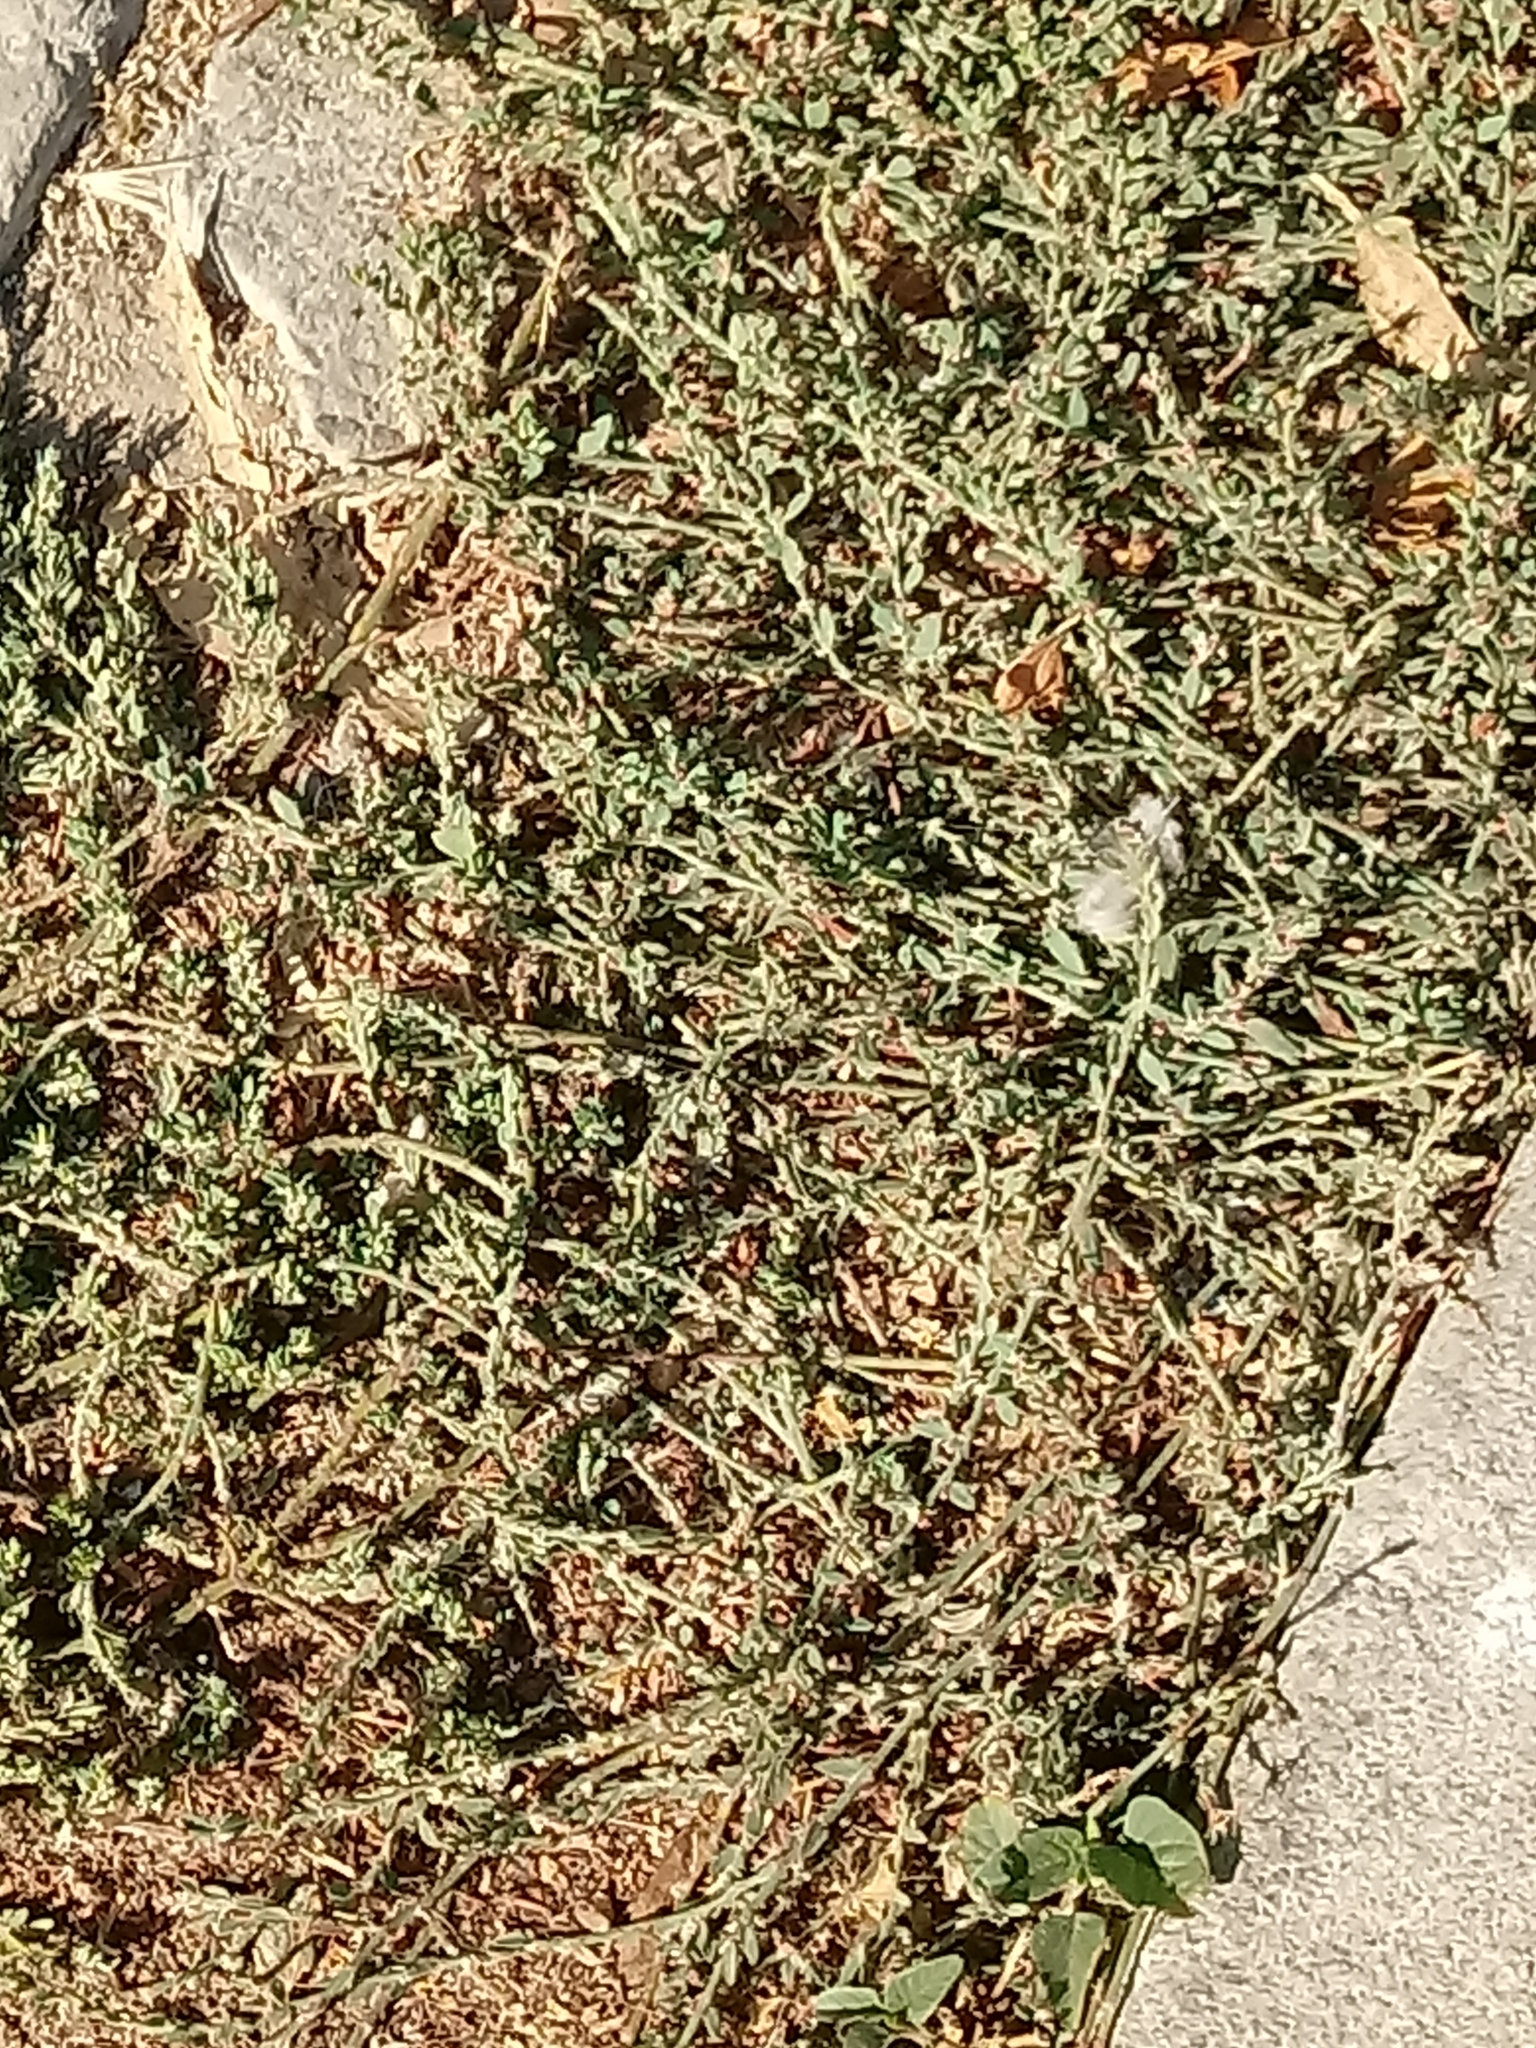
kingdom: Plantae
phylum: Tracheophyta
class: Magnoliopsida
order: Caryophyllales
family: Polygonaceae
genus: Polygonum
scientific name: Polygonum aviculare
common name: Prostrate knotweed
